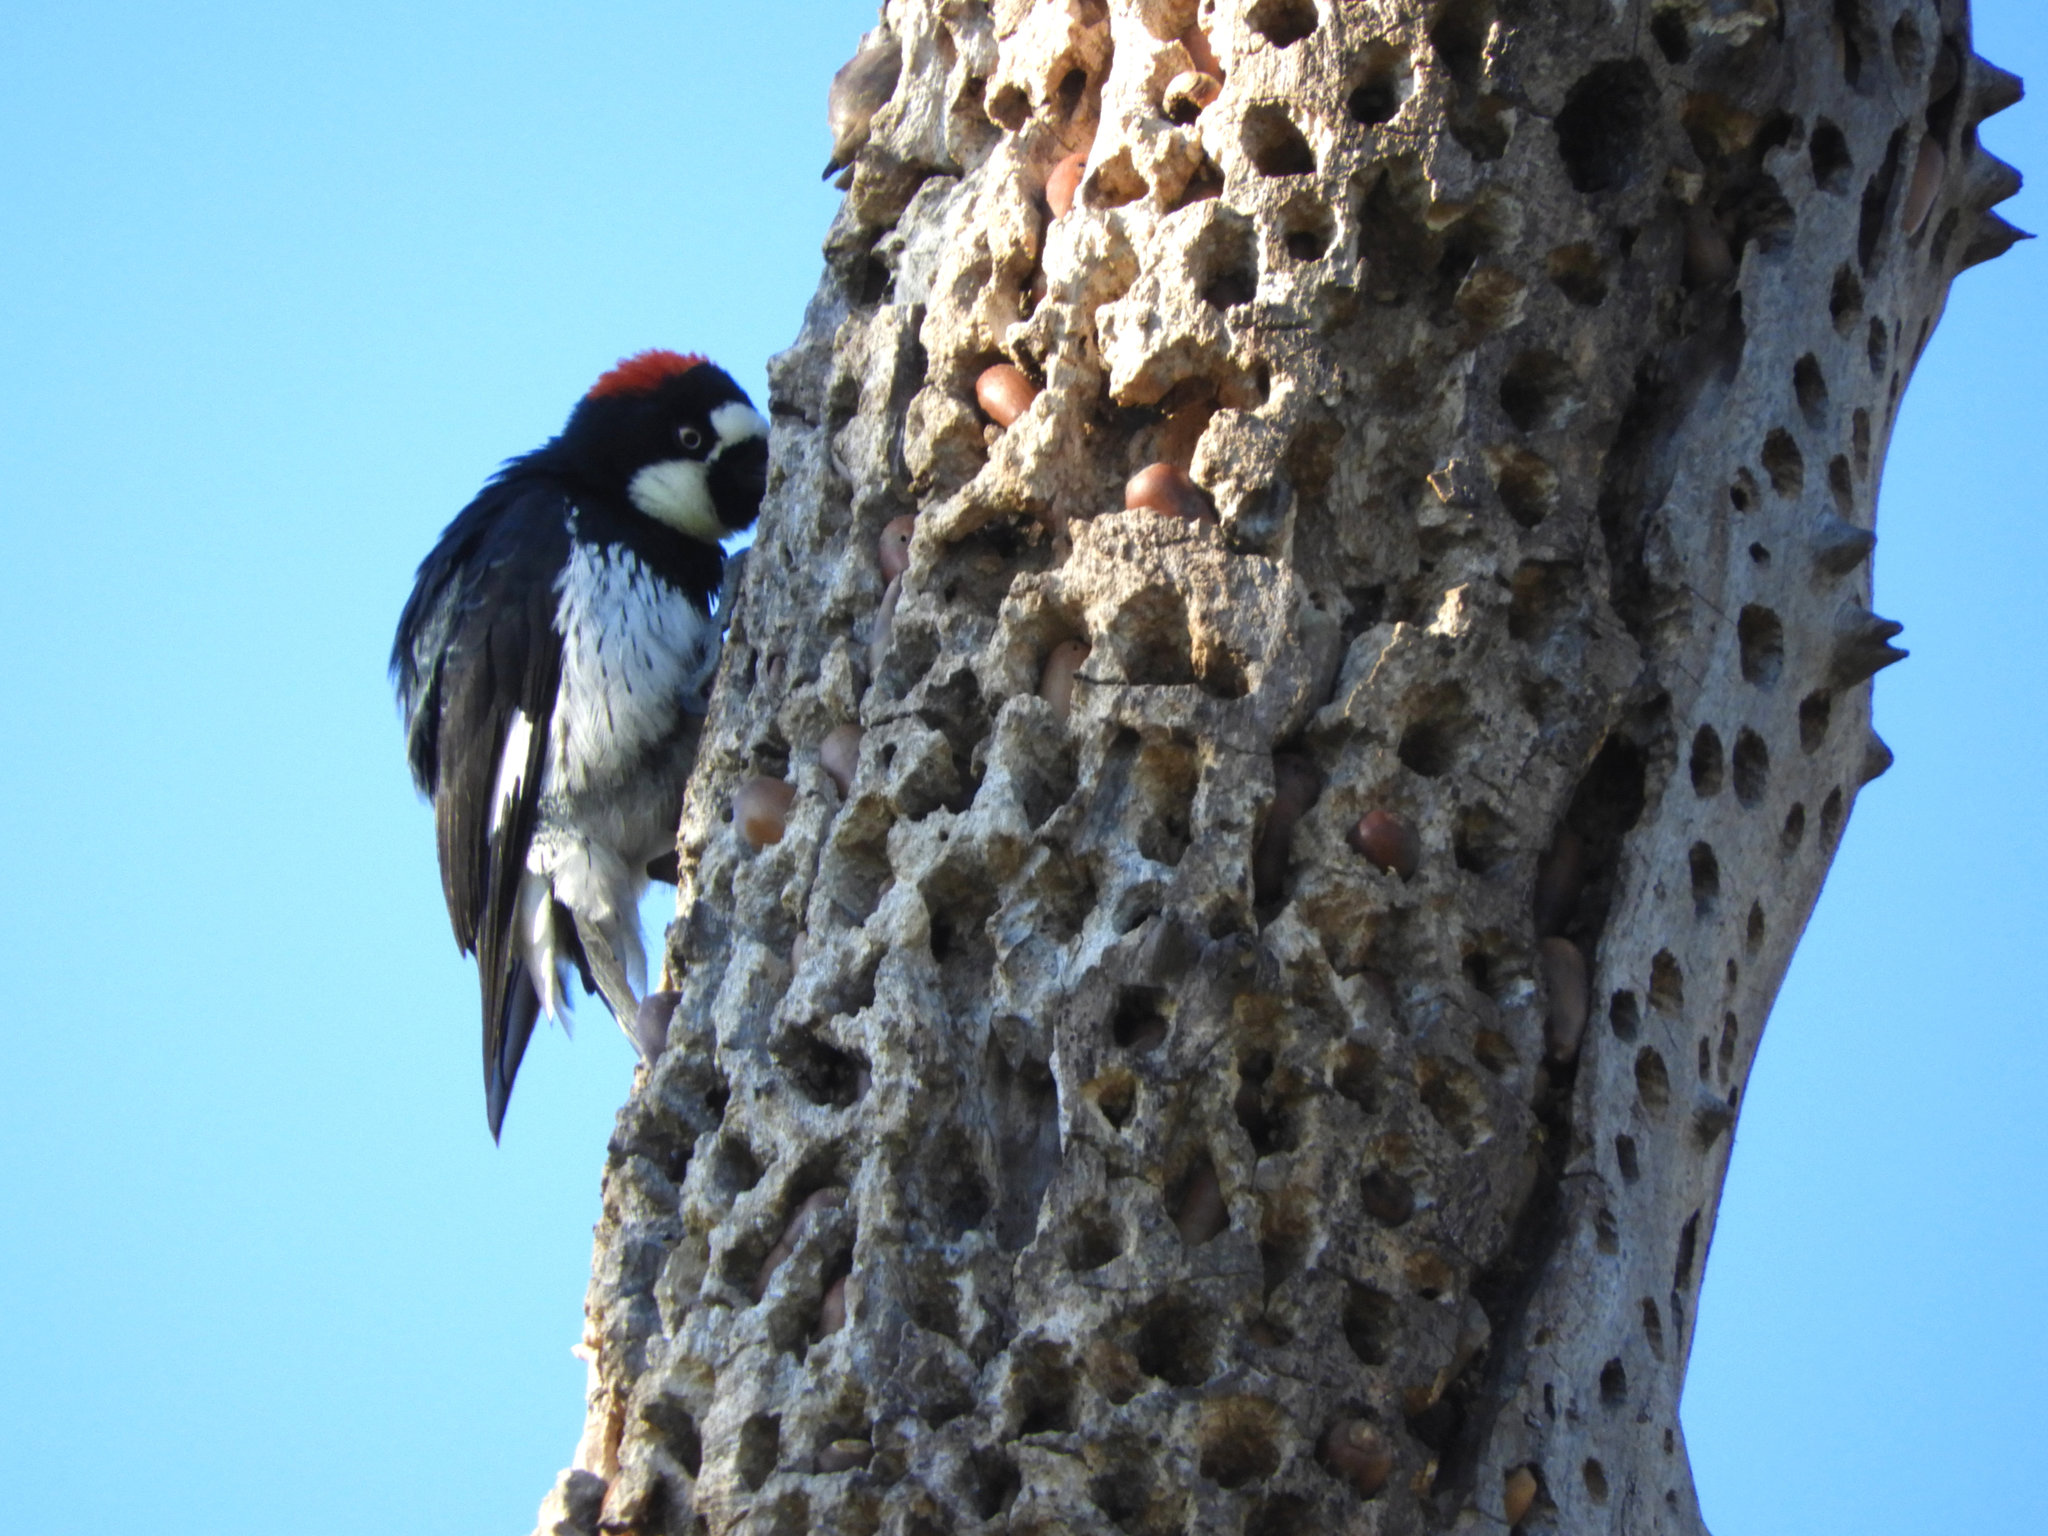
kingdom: Animalia
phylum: Chordata
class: Aves
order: Piciformes
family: Picidae
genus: Melanerpes
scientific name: Melanerpes formicivorus
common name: Acorn woodpecker
